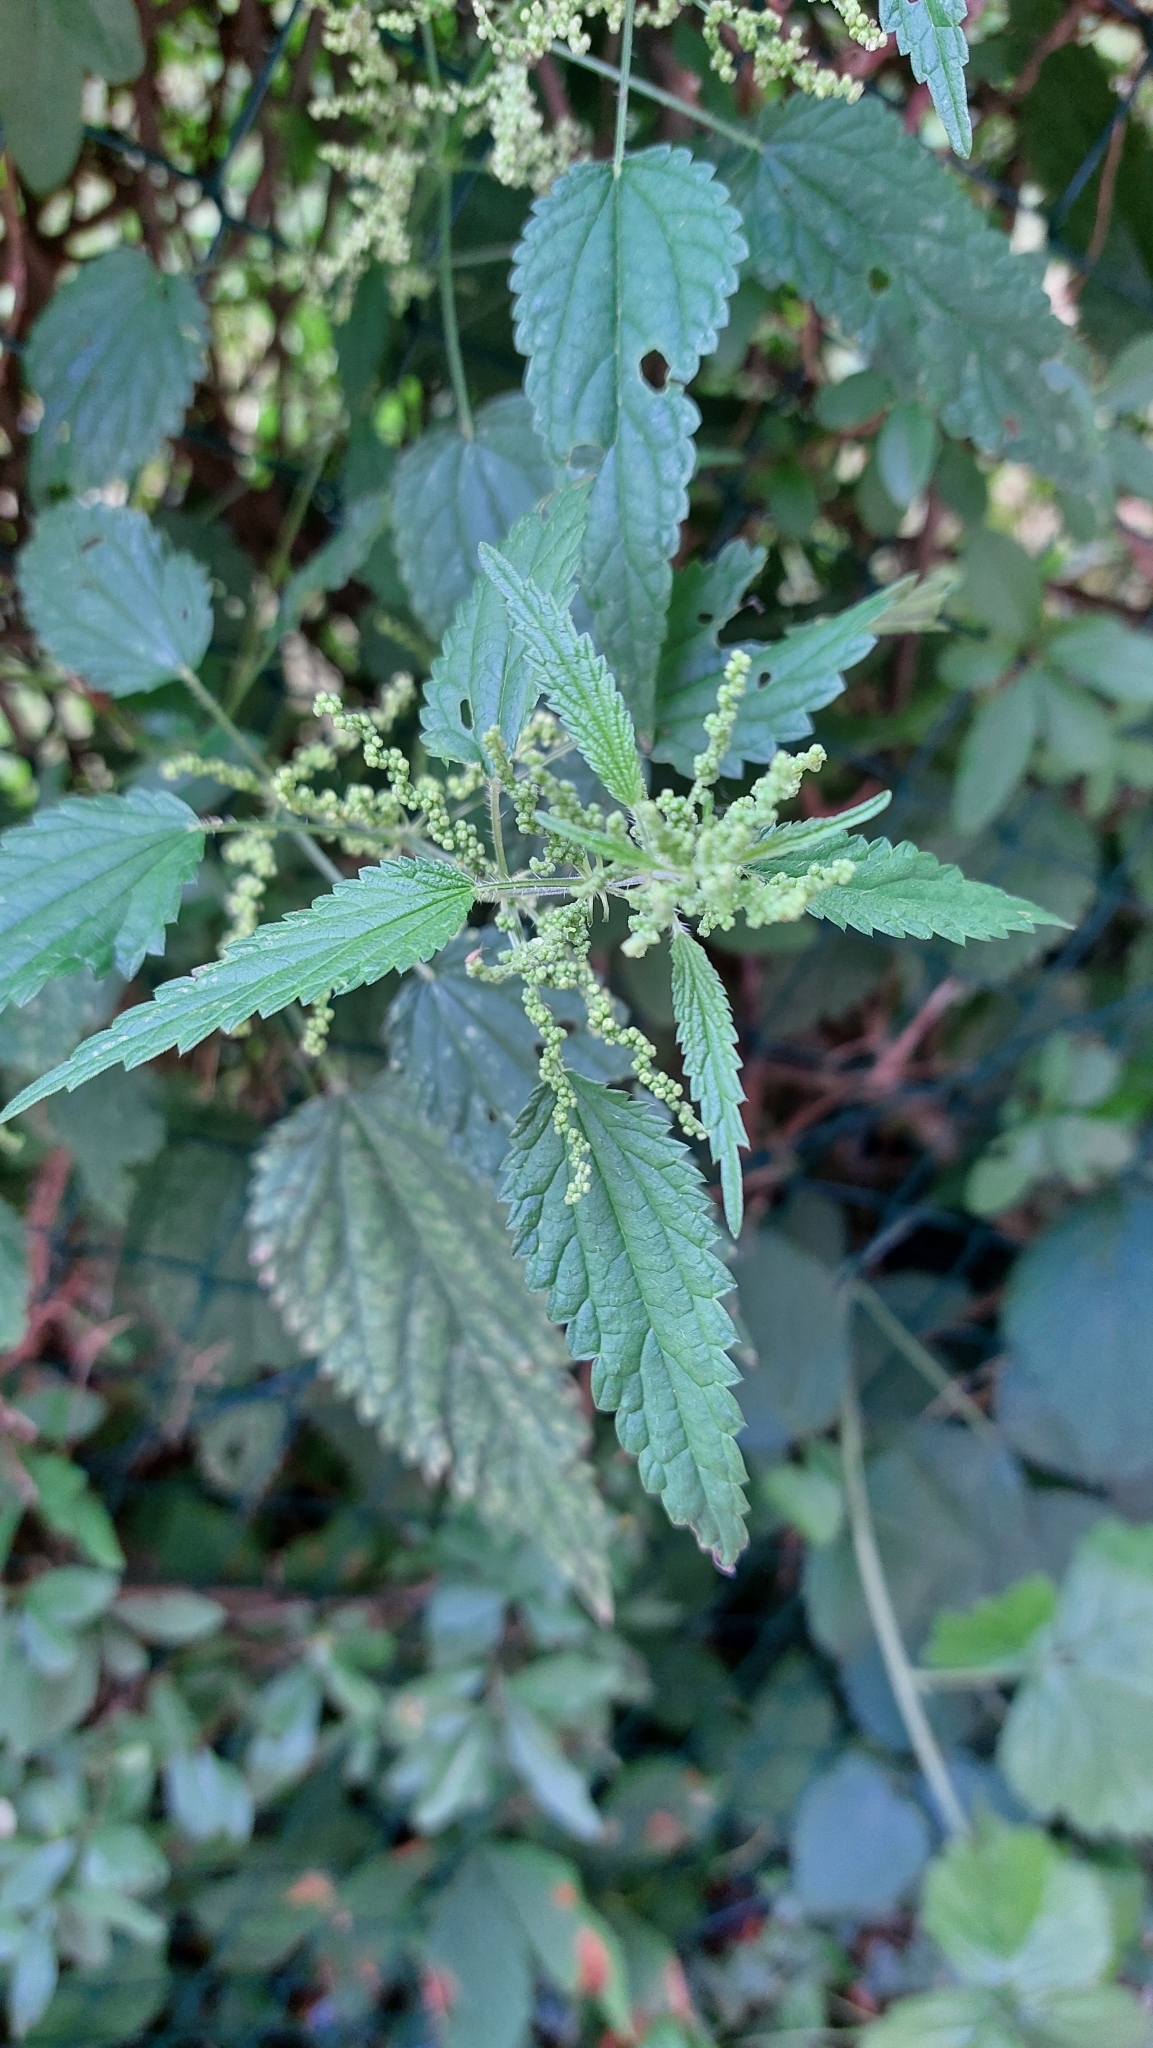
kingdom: Plantae
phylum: Tracheophyta
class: Magnoliopsida
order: Rosales
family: Urticaceae
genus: Urtica
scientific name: Urtica dioica
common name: Common nettle
